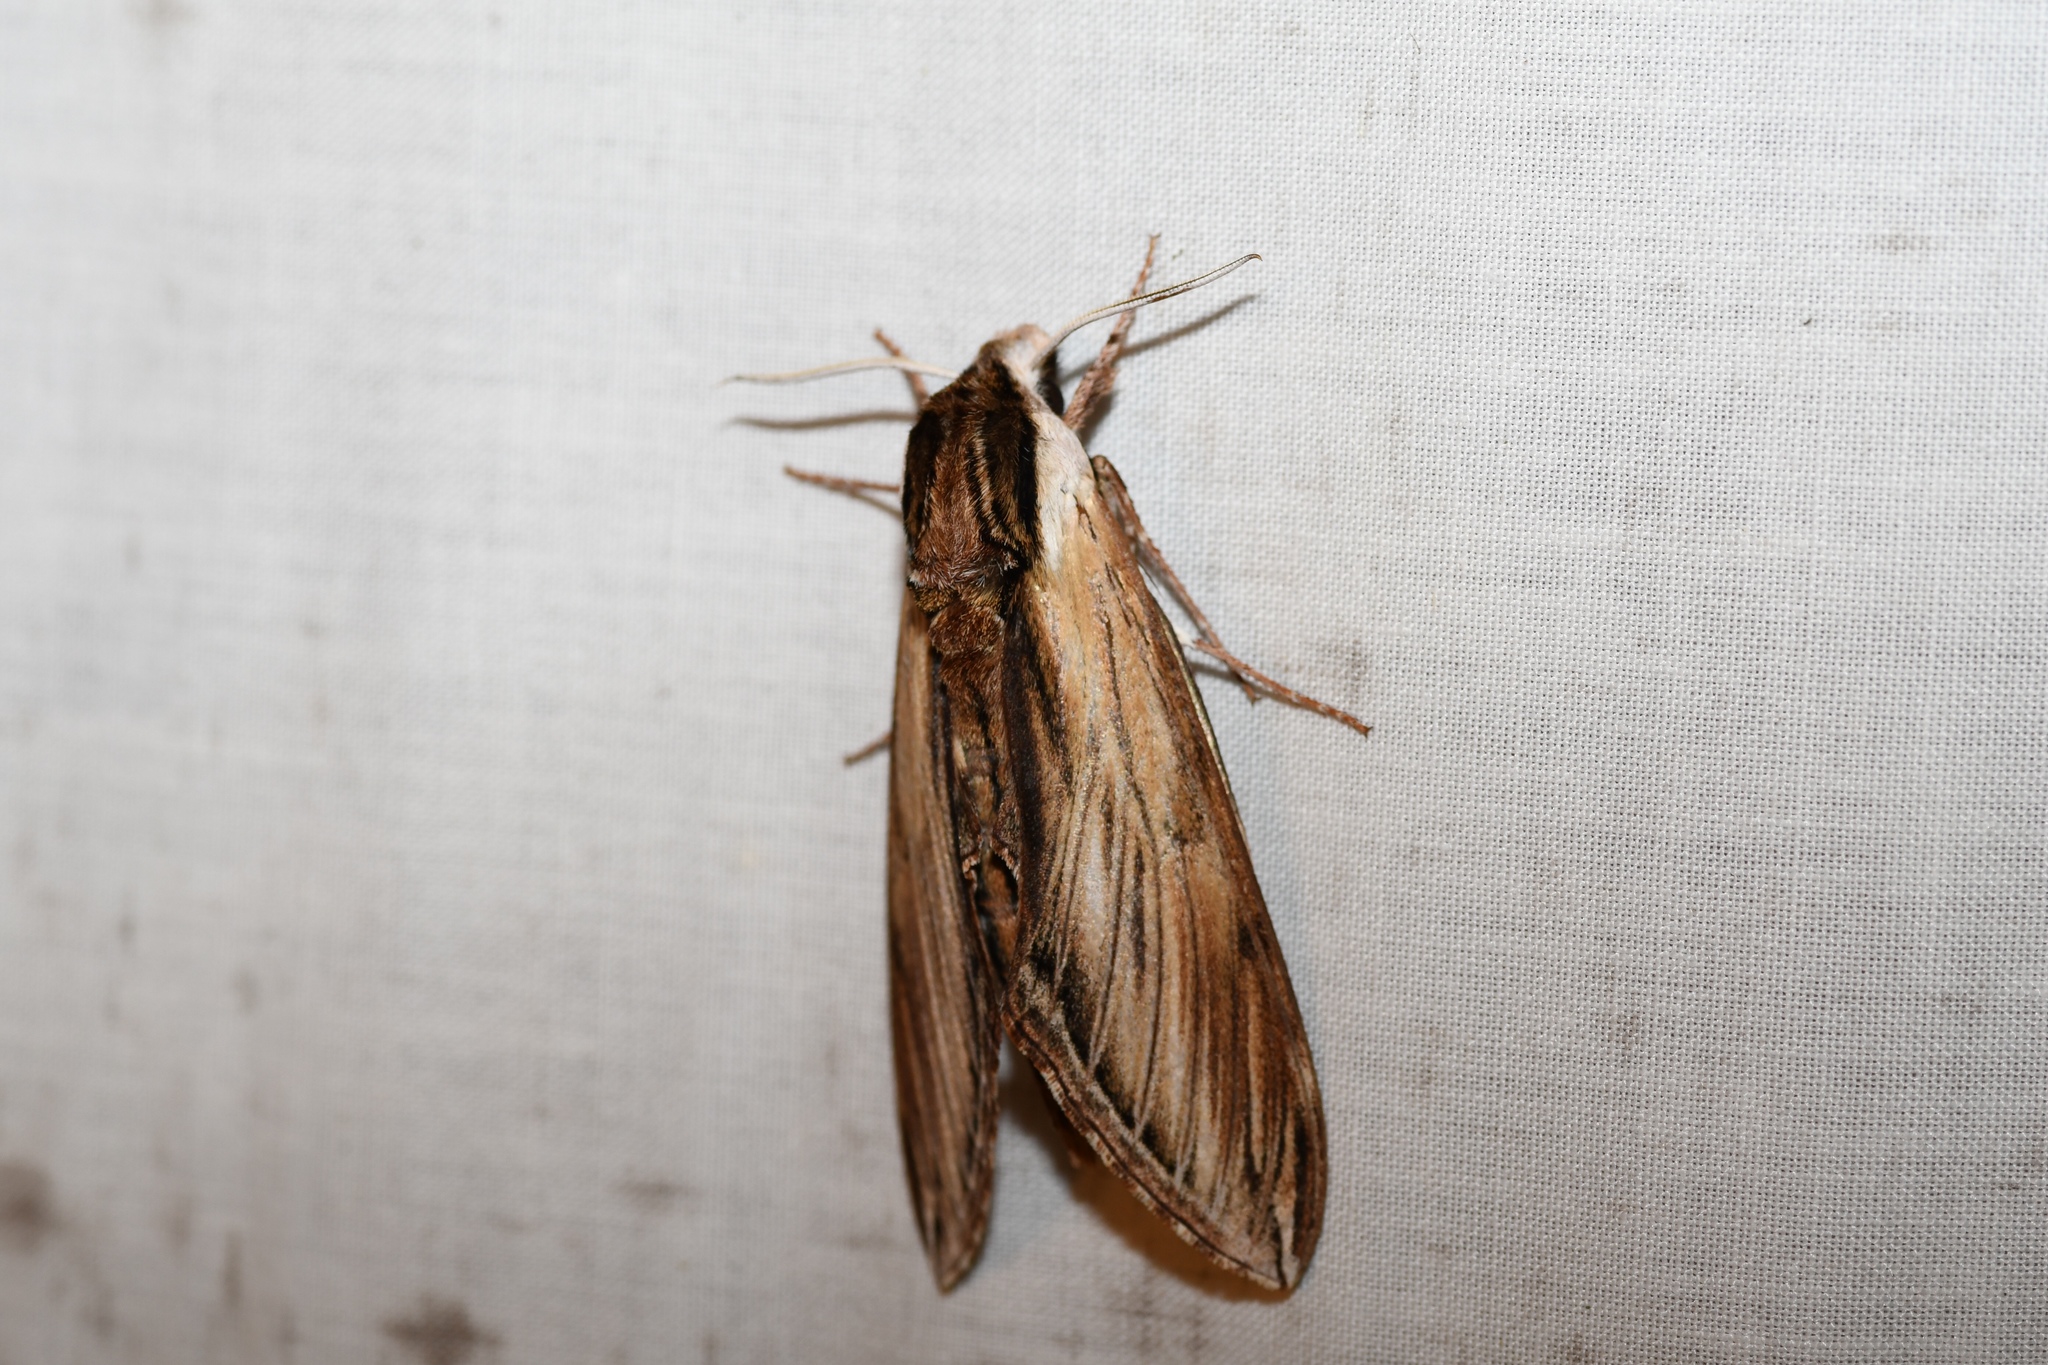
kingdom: Animalia
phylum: Arthropoda
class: Insecta
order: Lepidoptera
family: Sphingidae
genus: Sphinx
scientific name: Sphinx kalmiae
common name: Laurel sphinx
